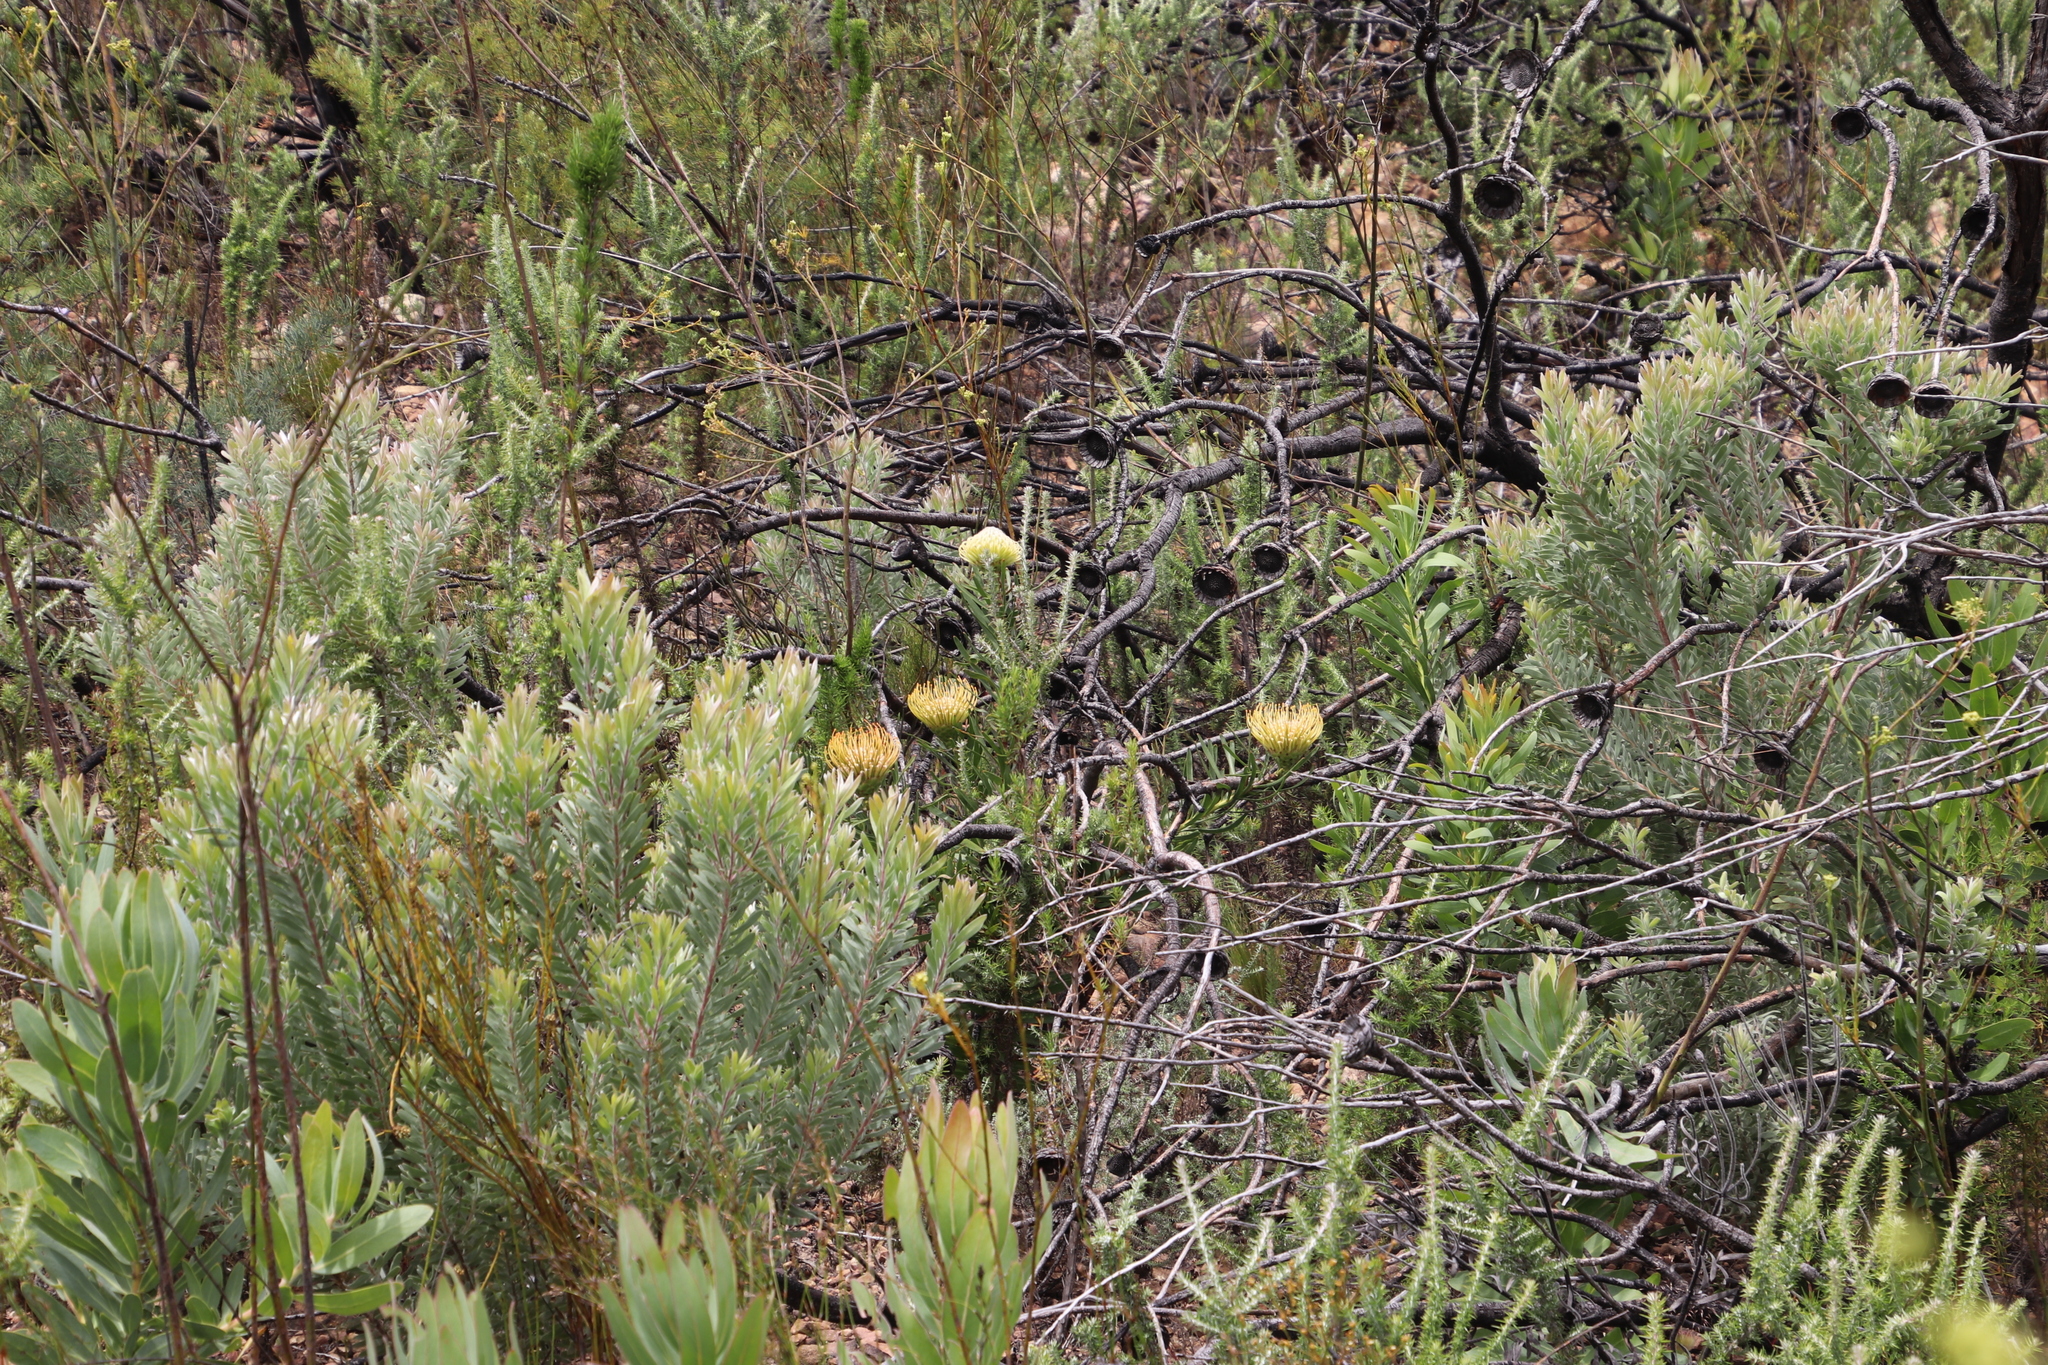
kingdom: Plantae
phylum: Tracheophyta
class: Magnoliopsida
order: Proteales
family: Proteaceae
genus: Leucospermum
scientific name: Leucospermum lineare
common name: Needle-leaf pincushion
